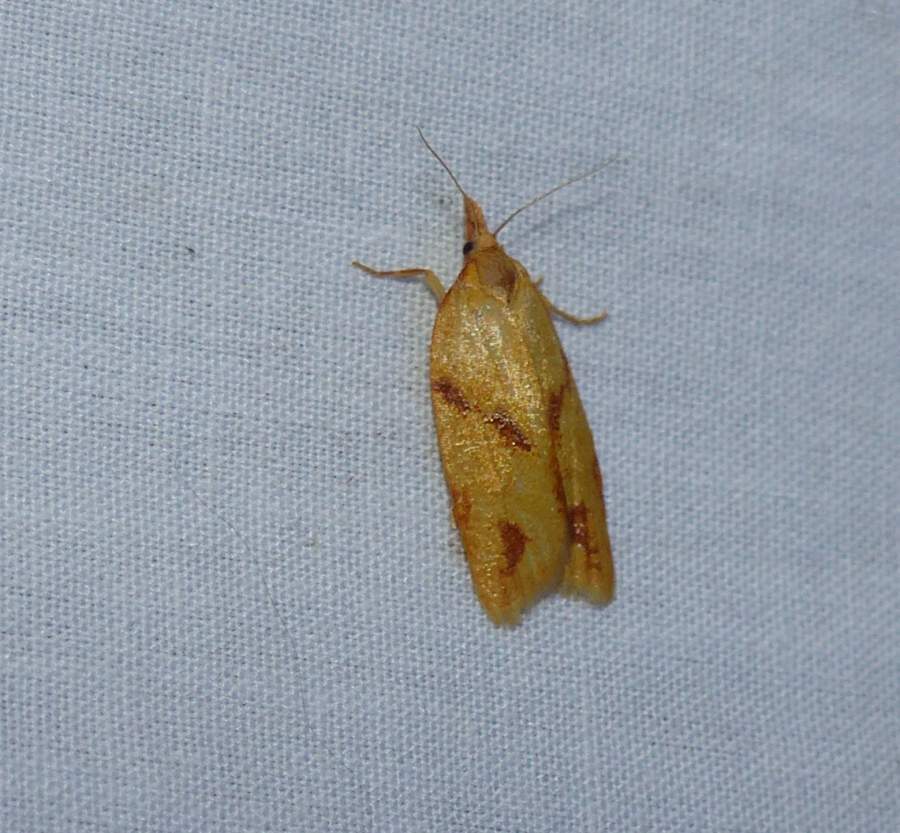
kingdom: Animalia
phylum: Arthropoda
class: Insecta
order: Lepidoptera
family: Tortricidae
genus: Sparganothis
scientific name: Sparganothis unifasciana
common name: One-lined sparganothis moth
